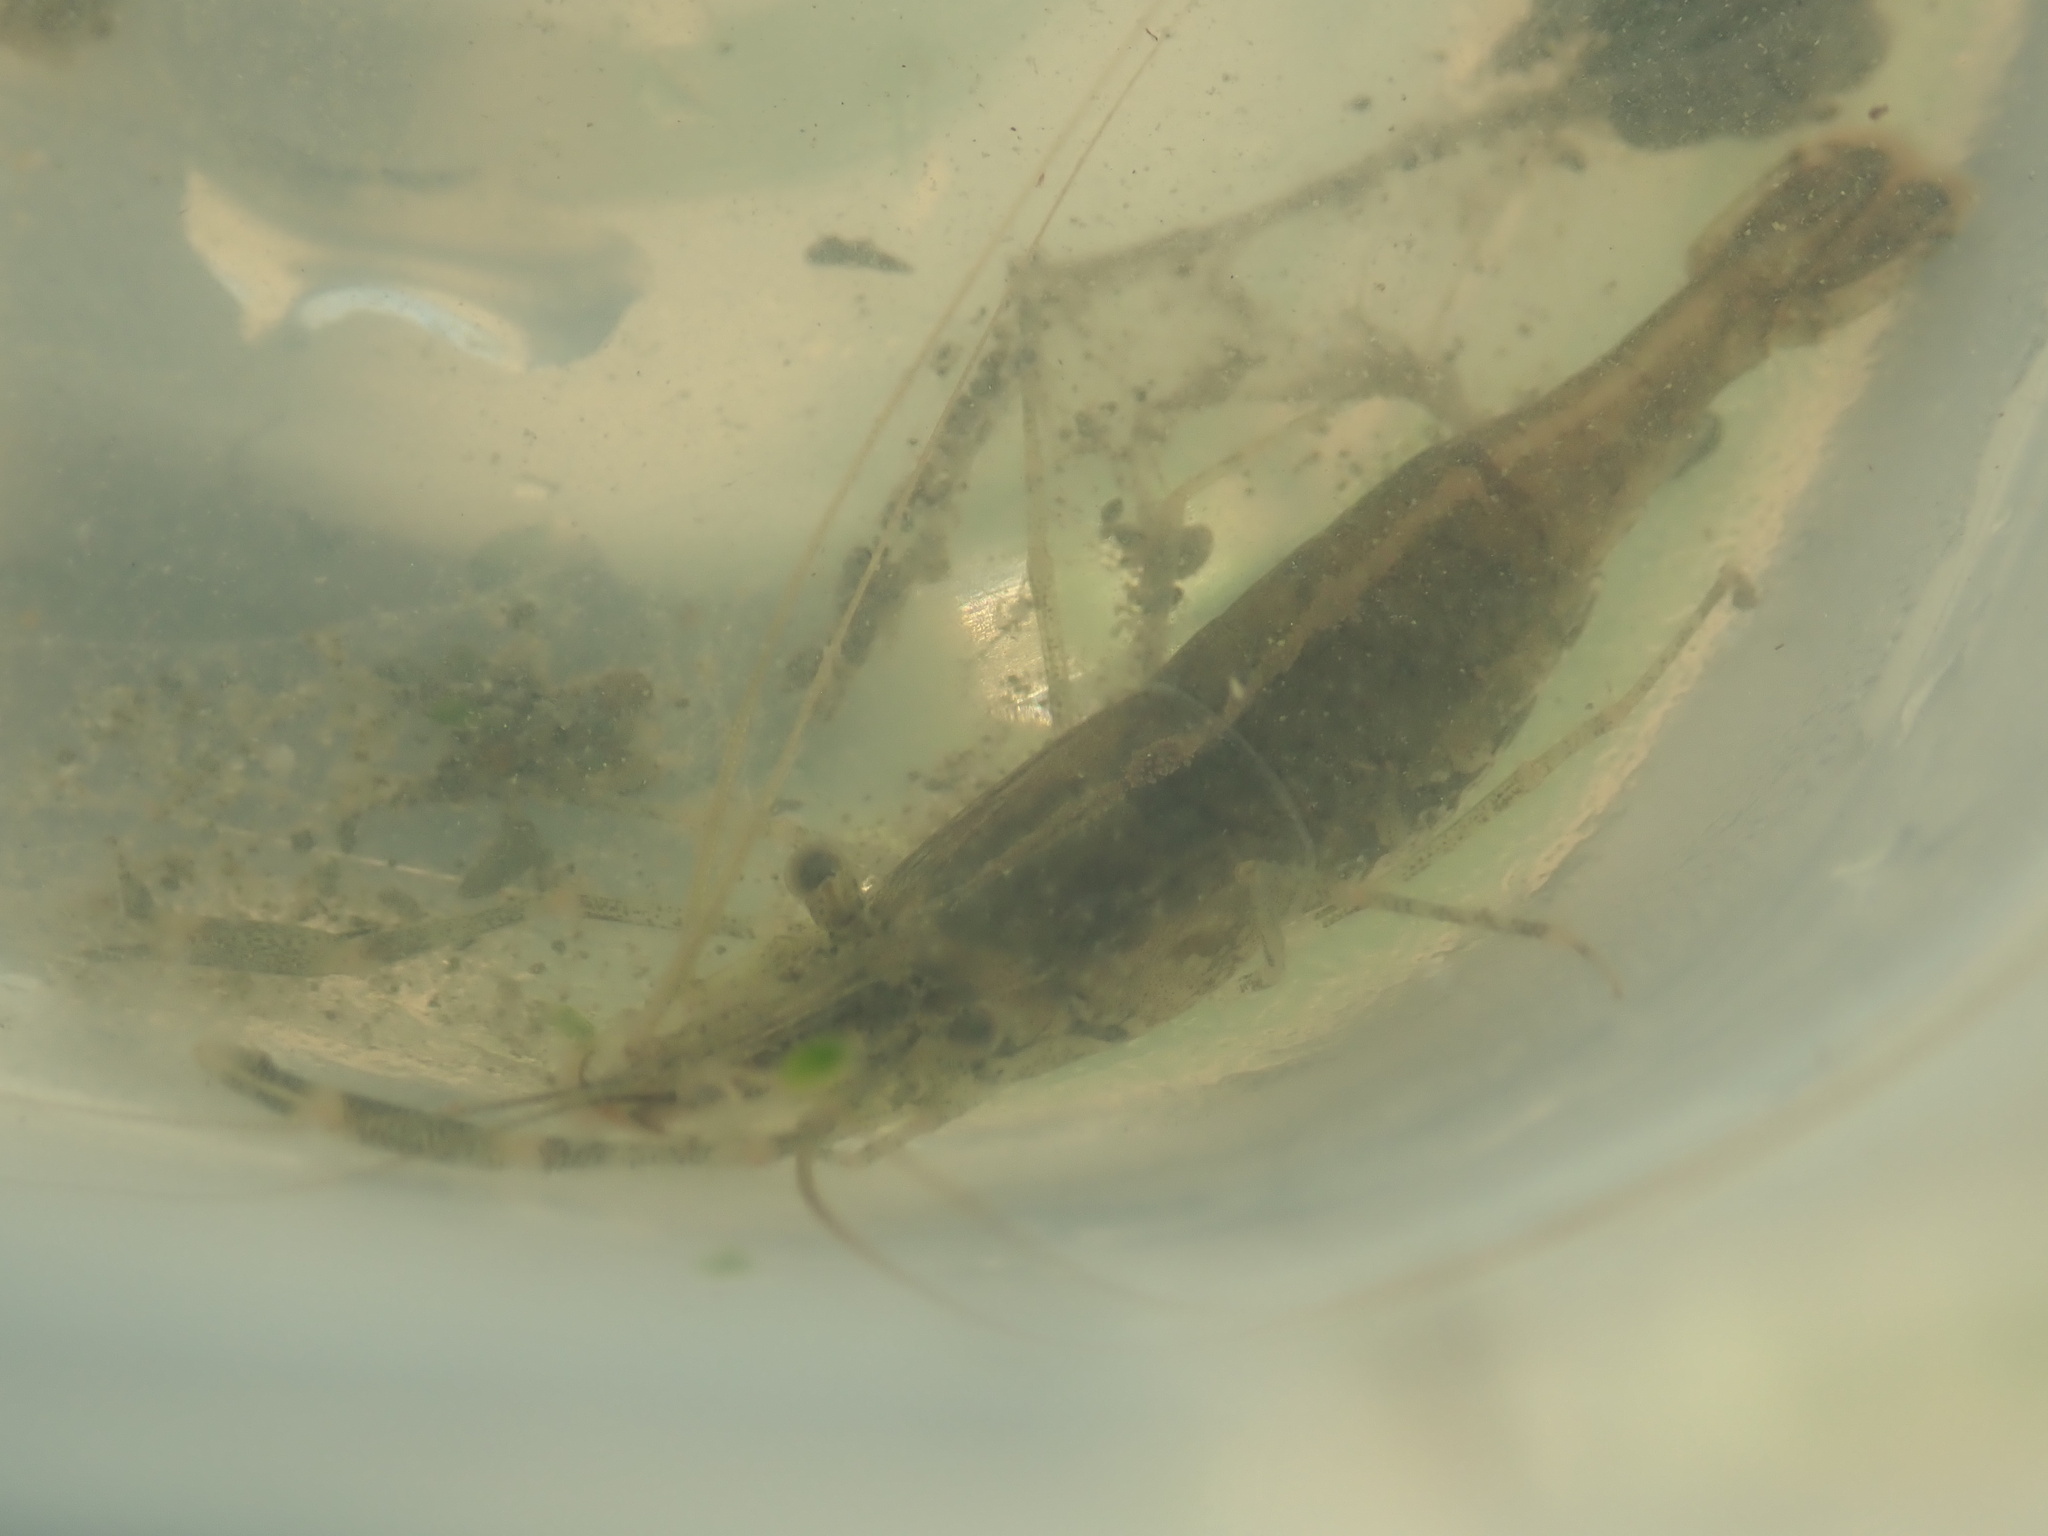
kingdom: Animalia
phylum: Arthropoda
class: Malacostraca
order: Decapoda
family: Palaemonidae
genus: Palaemon
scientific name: Palaemon macrodactylus
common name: Oriental prawn
